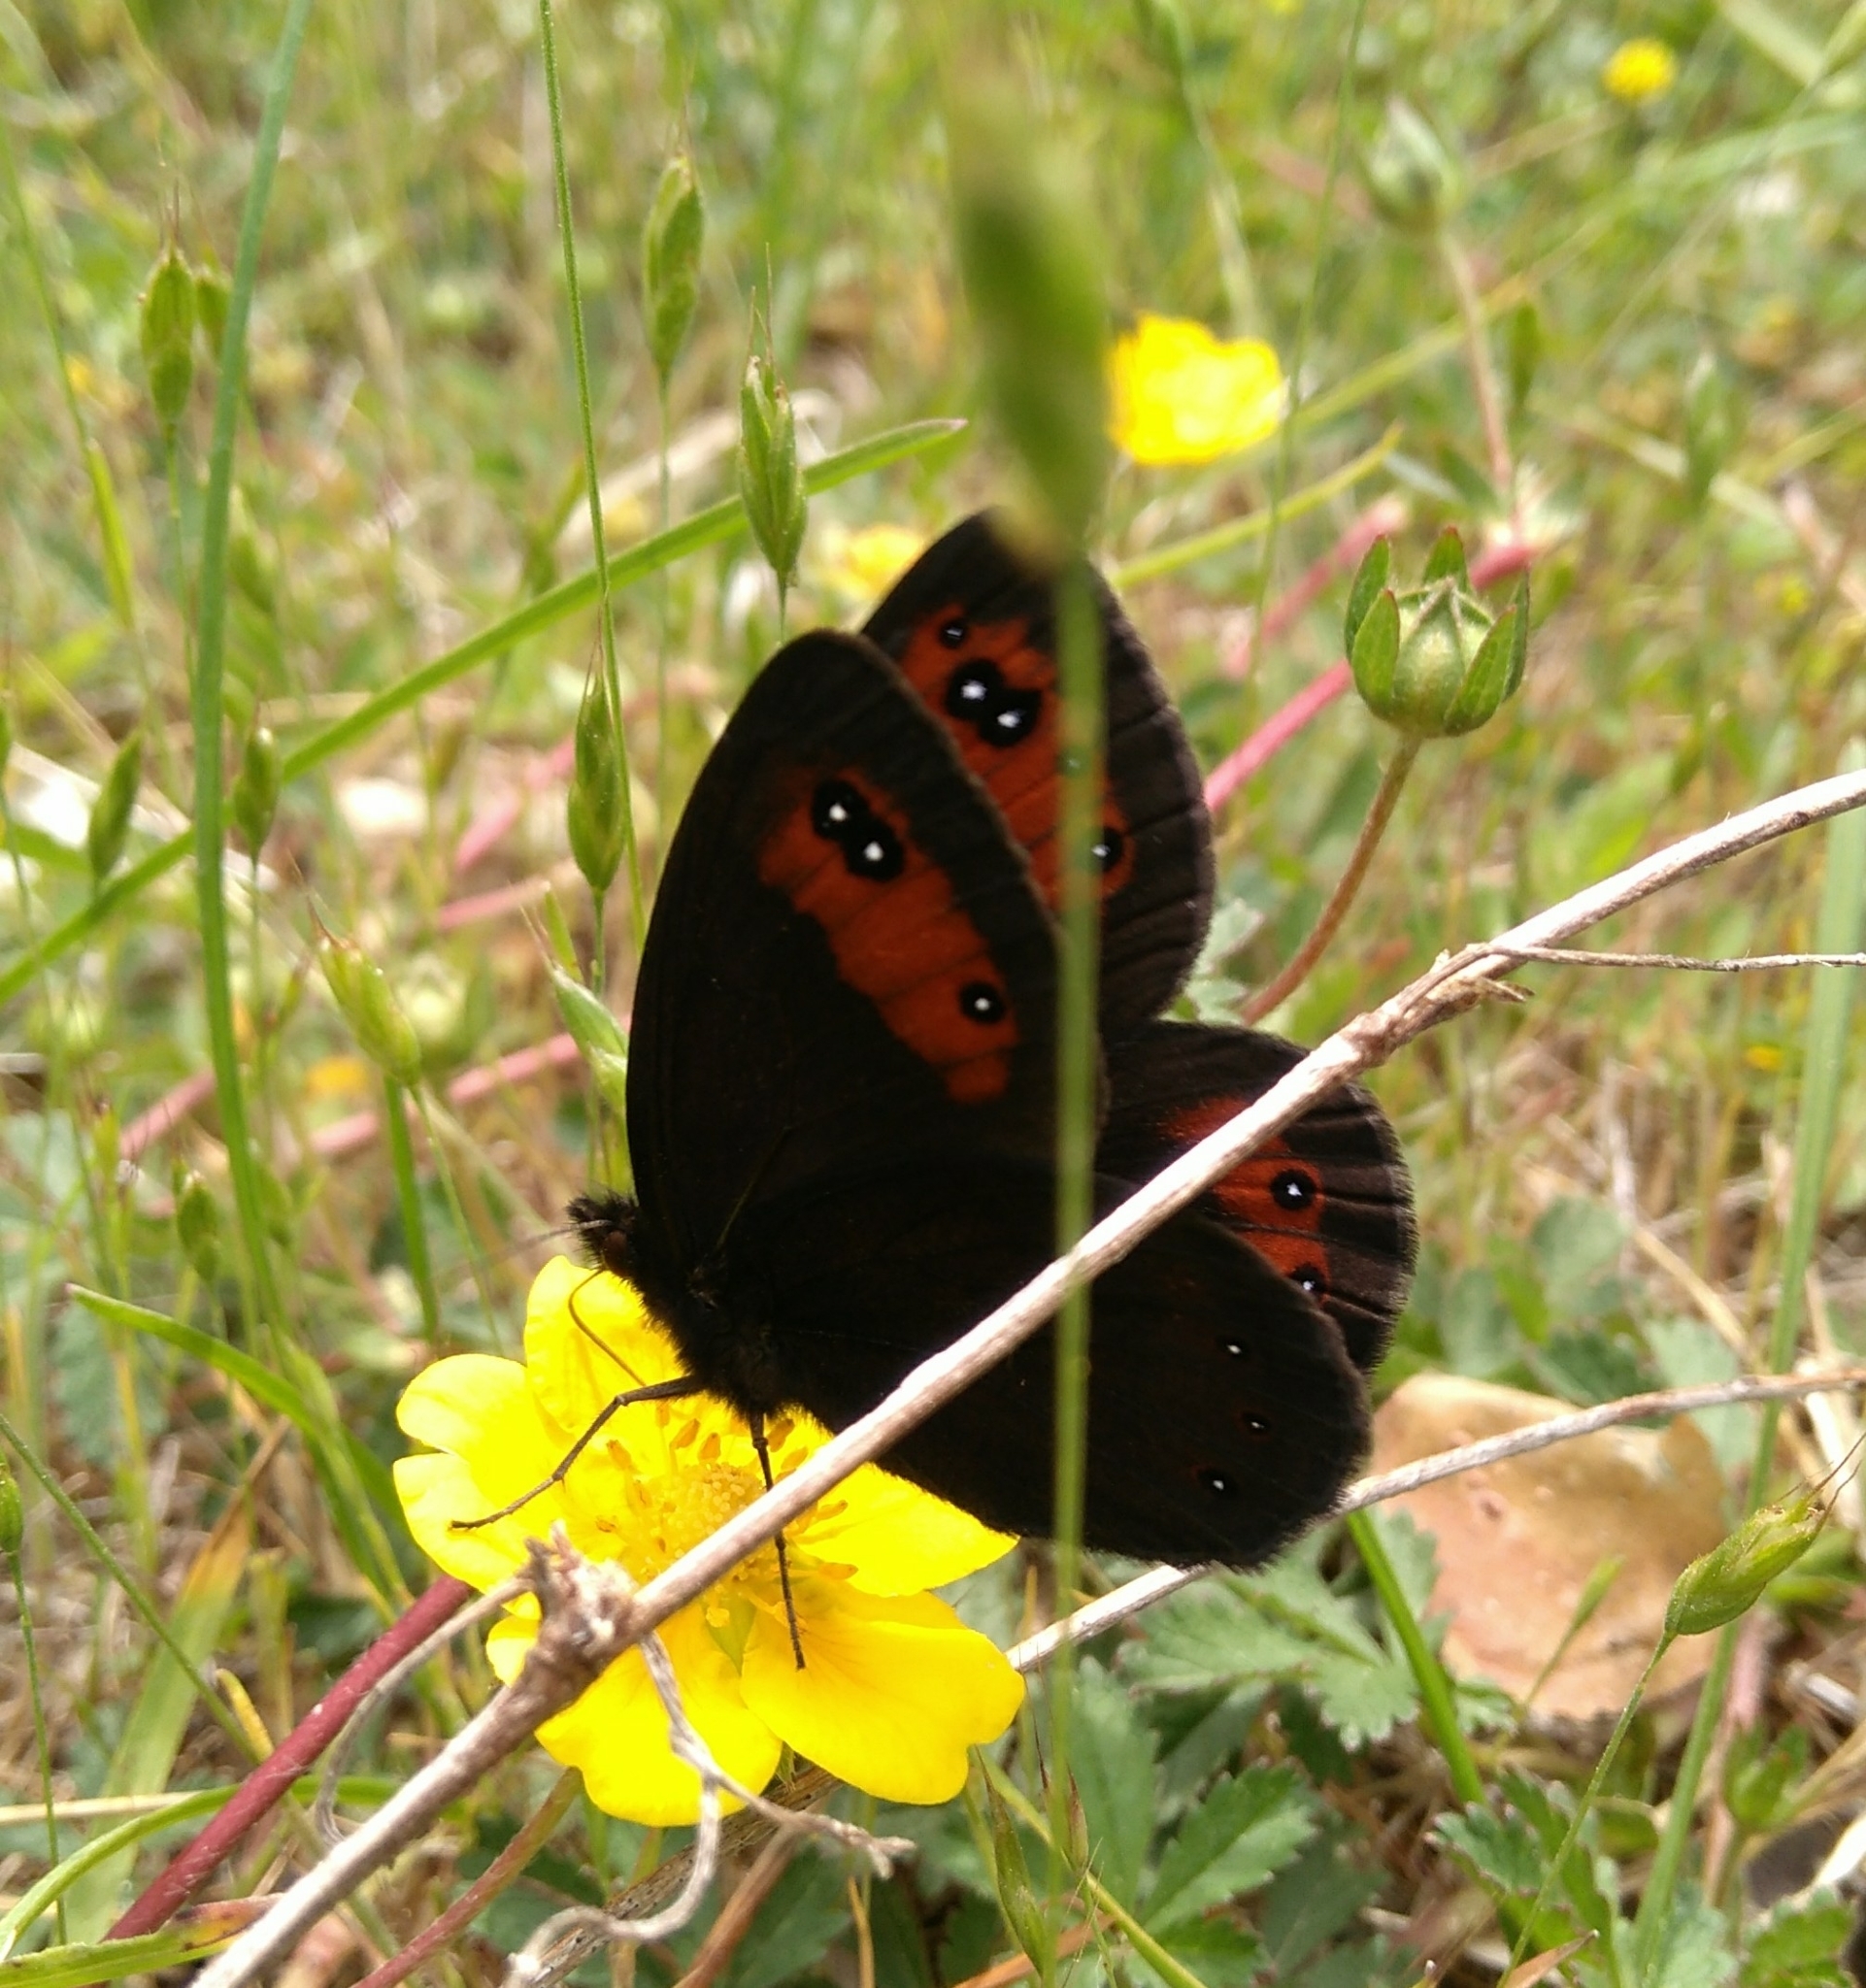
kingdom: Animalia
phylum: Arthropoda
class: Insecta
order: Lepidoptera
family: Nymphalidae
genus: Erebia
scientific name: Erebia meolans
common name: Piedmont ringlet
